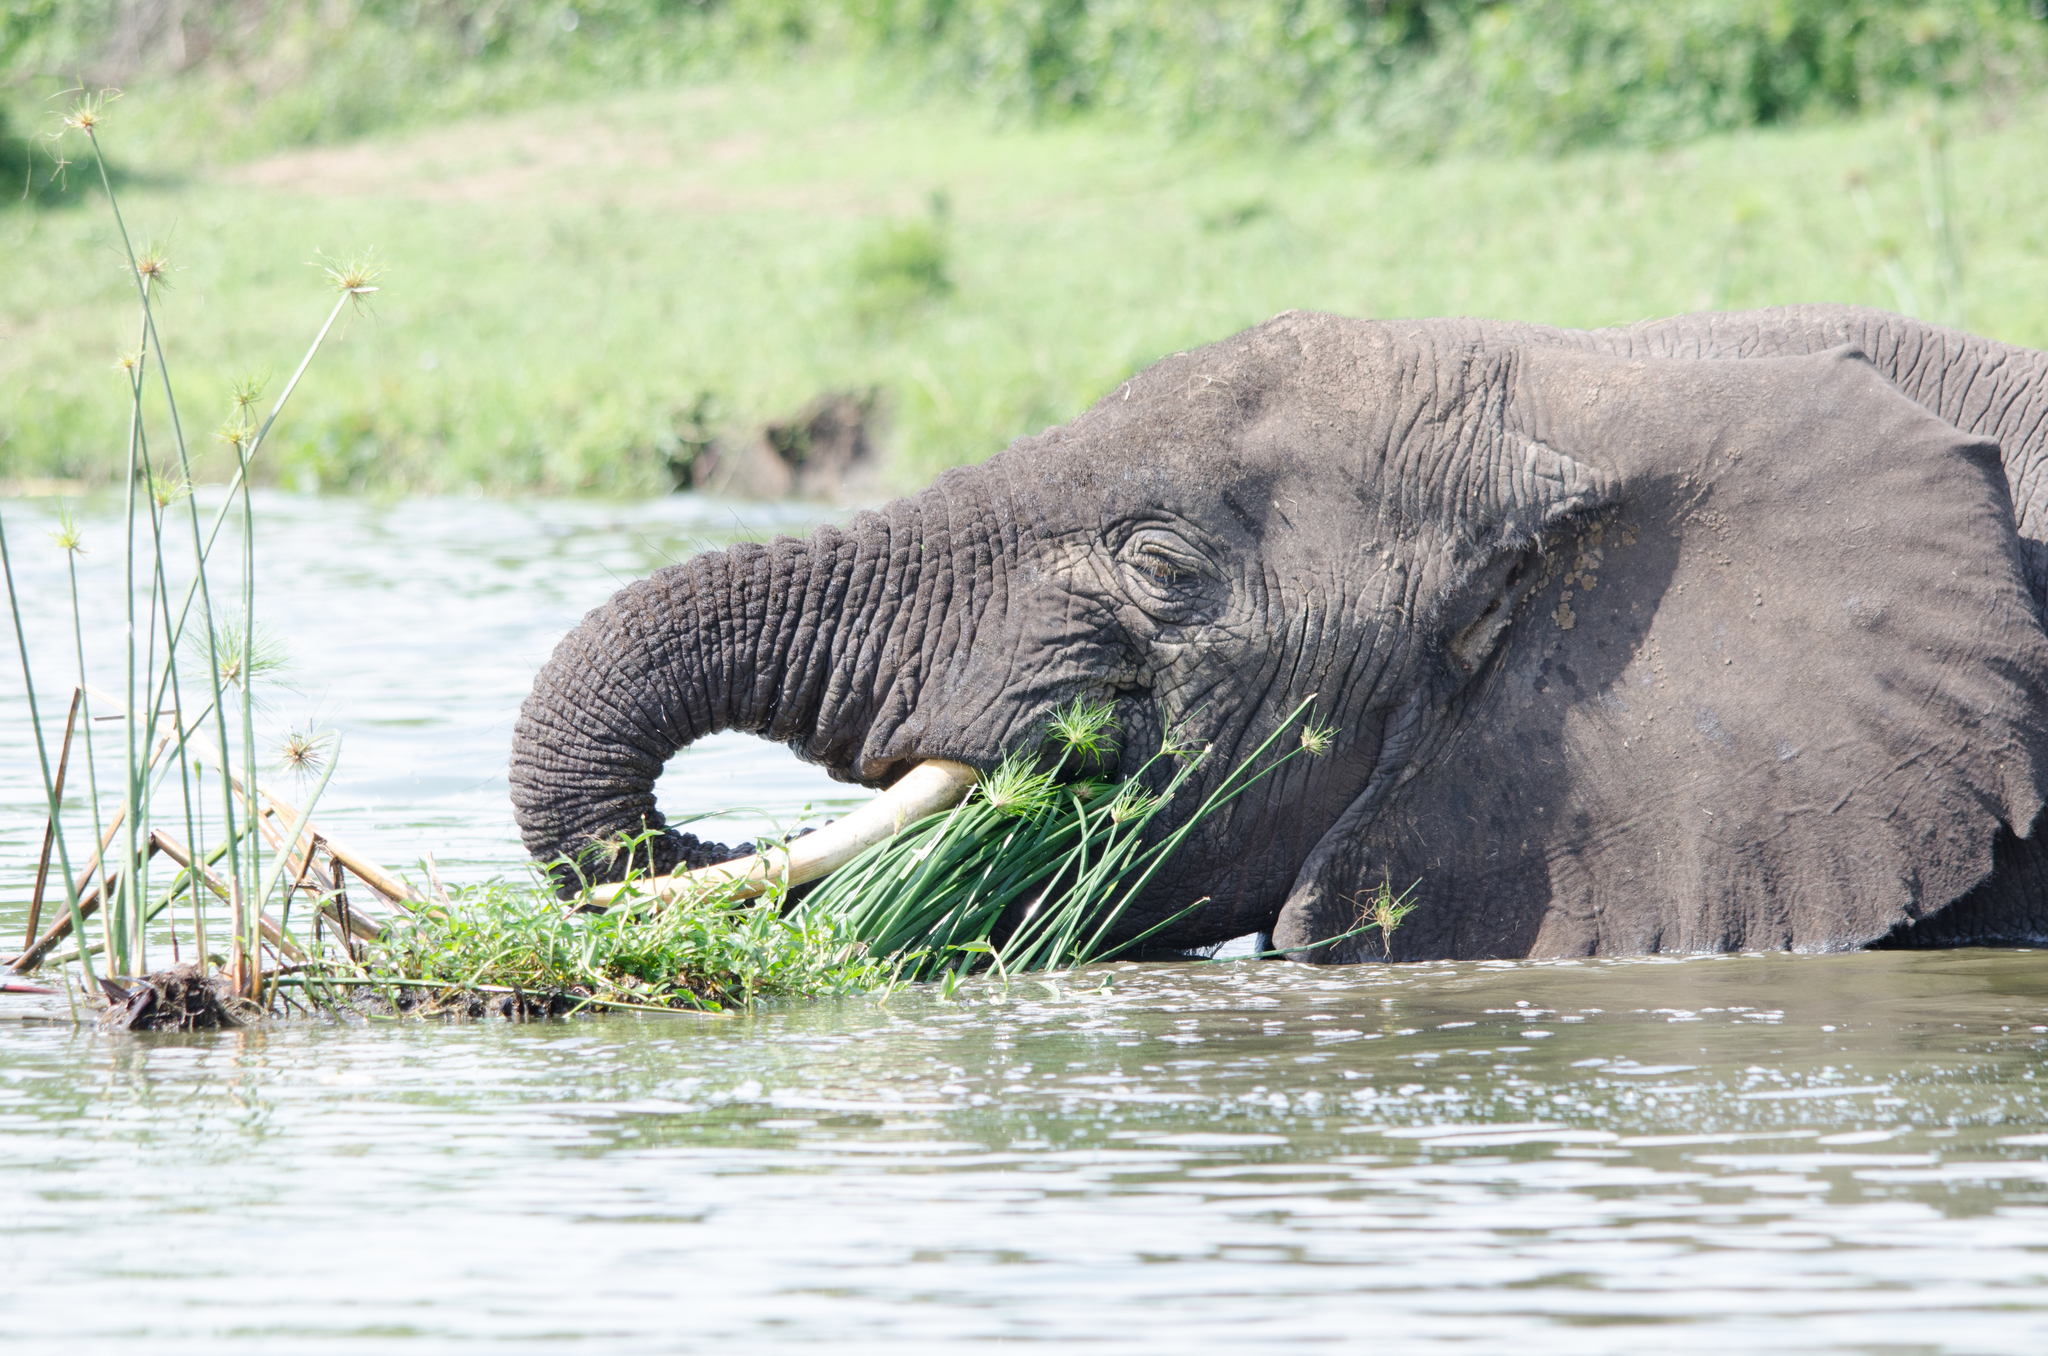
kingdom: Animalia
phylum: Chordata
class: Mammalia
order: Proboscidea
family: Elephantidae
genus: Loxodonta
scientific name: Loxodonta africana
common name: African elephant
